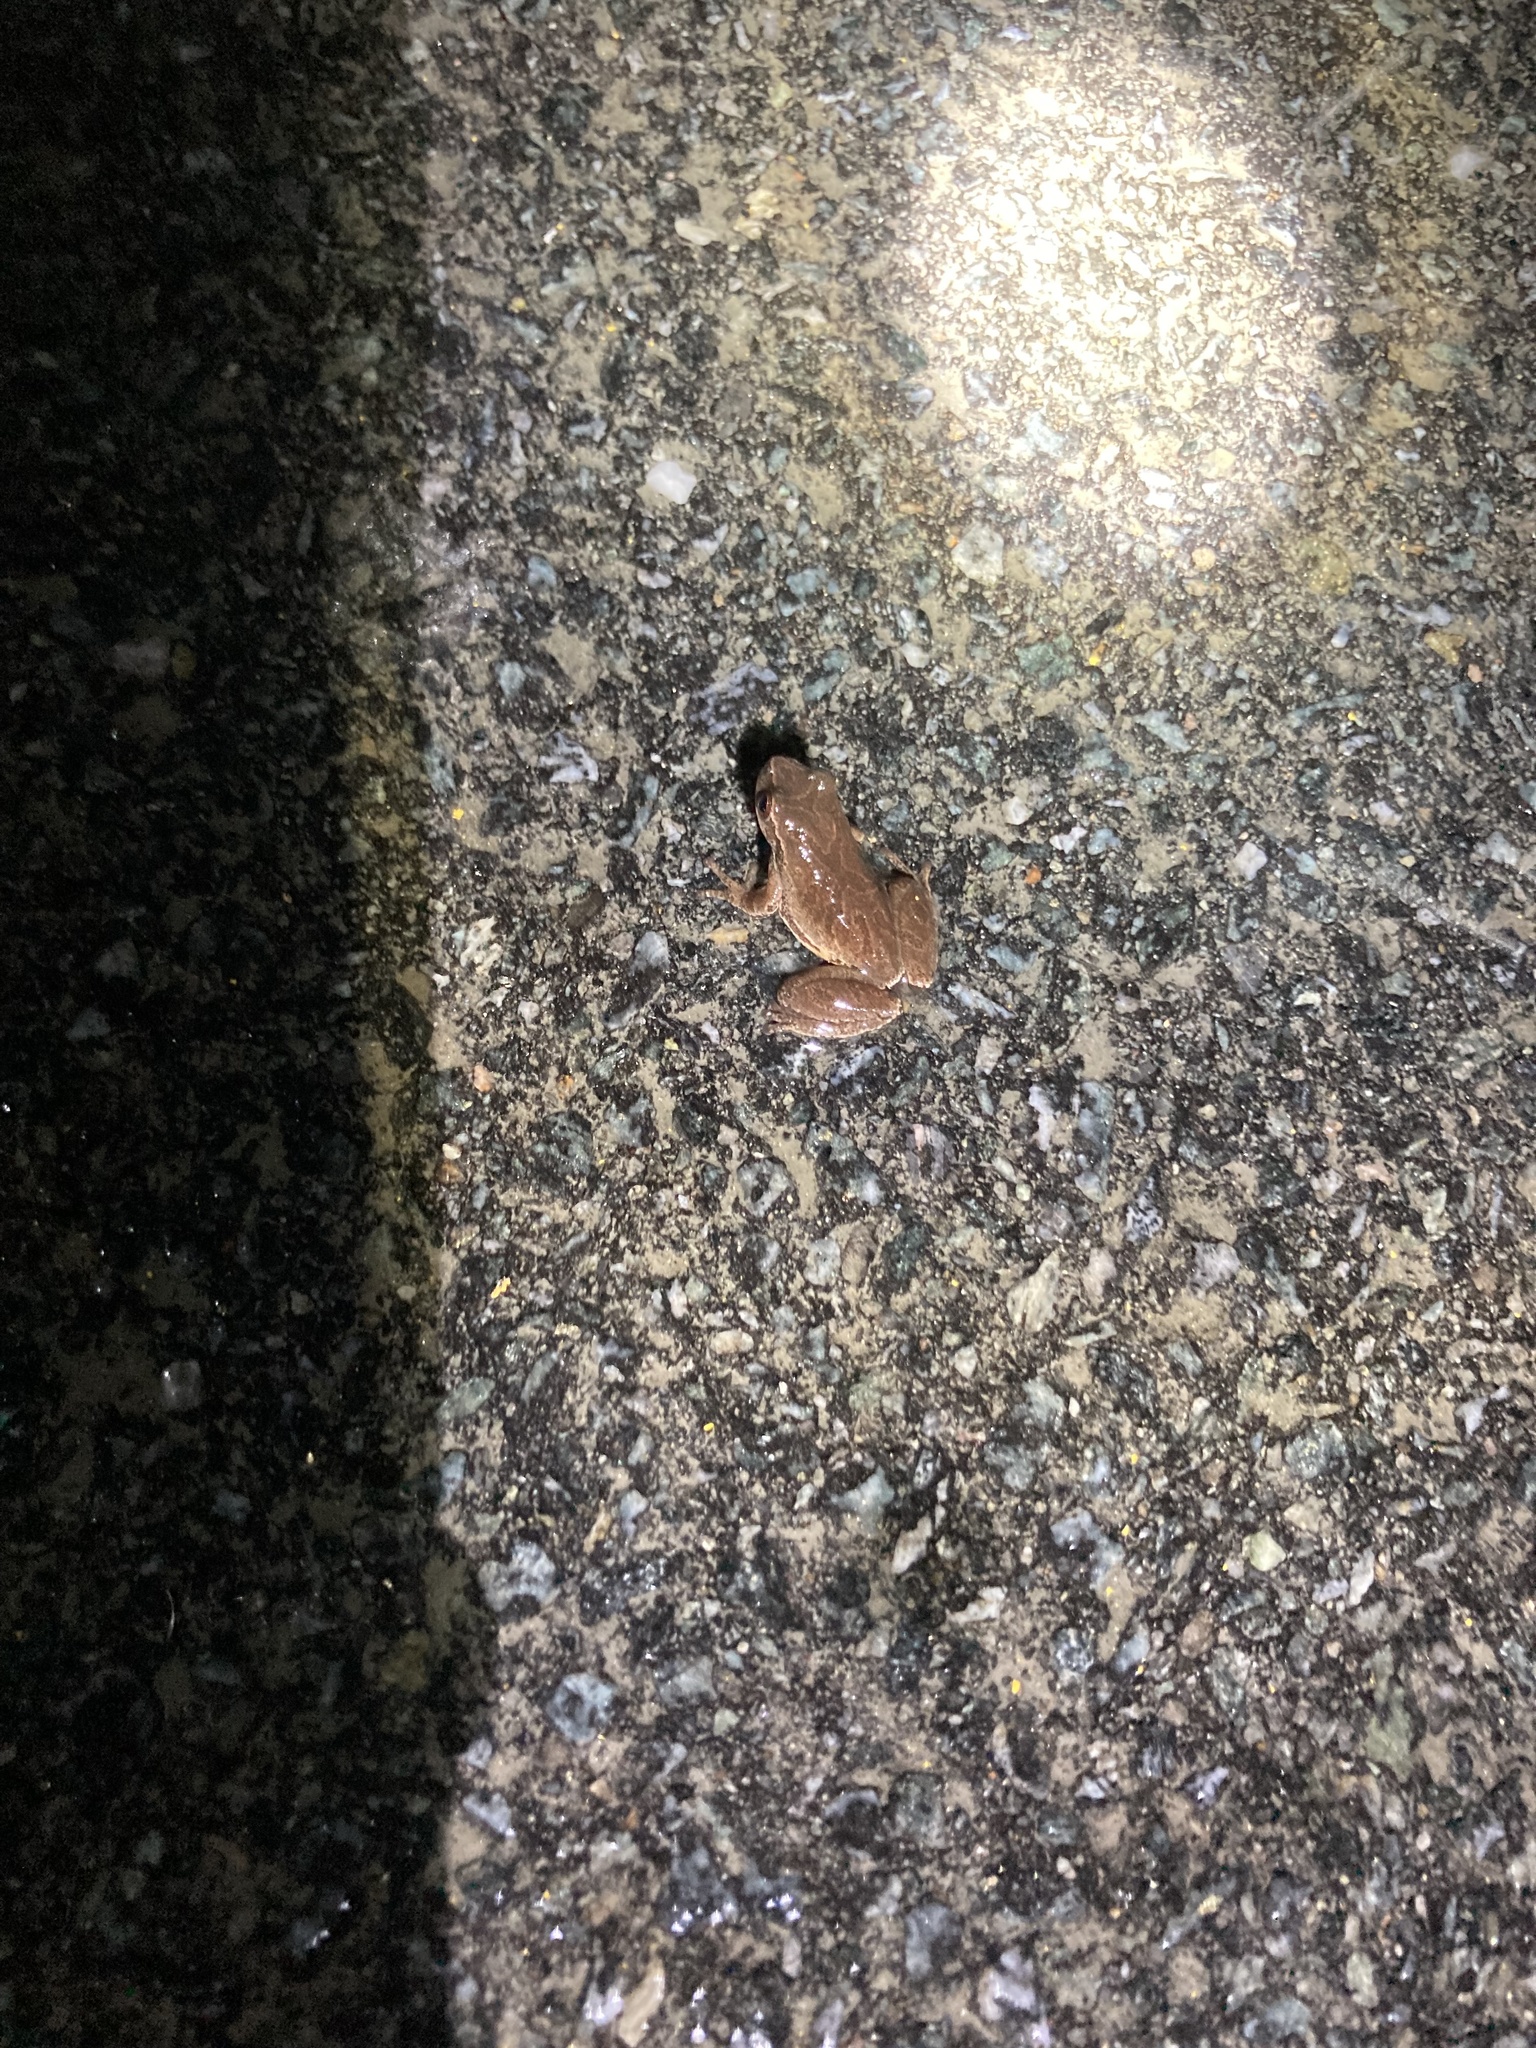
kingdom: Animalia
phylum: Chordata
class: Amphibia
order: Anura
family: Hylidae
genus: Pseudacris
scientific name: Pseudacris crucifer
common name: Spring peeper
